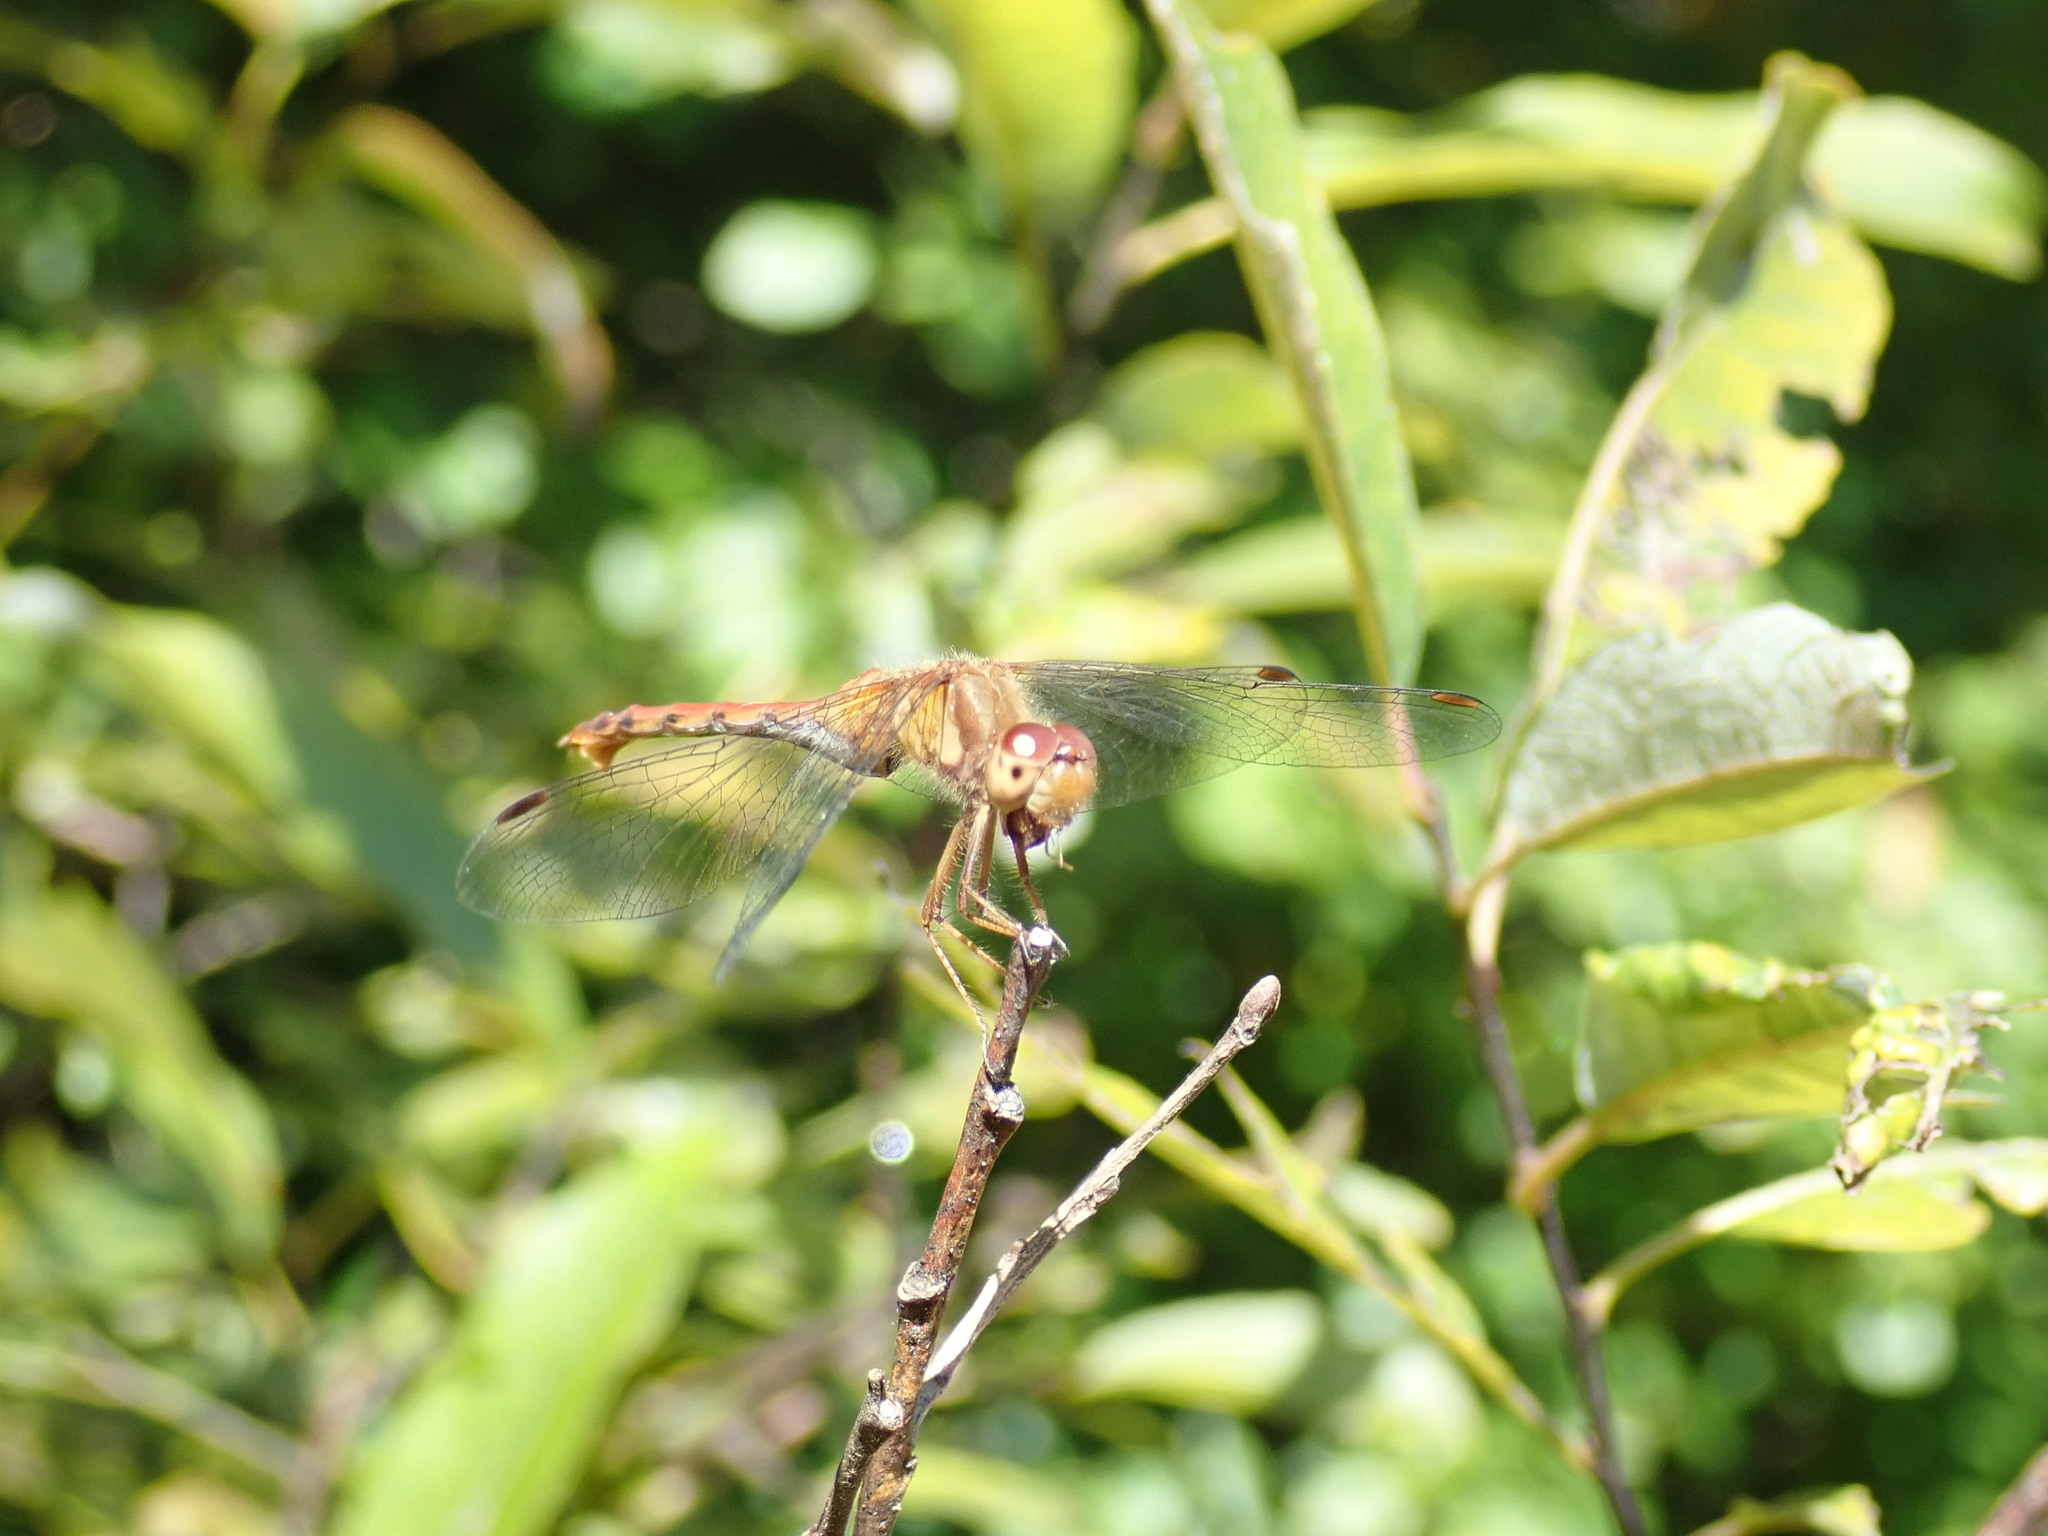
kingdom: Animalia
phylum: Arthropoda
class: Insecta
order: Odonata
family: Libellulidae
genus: Sympetrum
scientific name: Sympetrum vicinum
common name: Autumn meadowhawk
